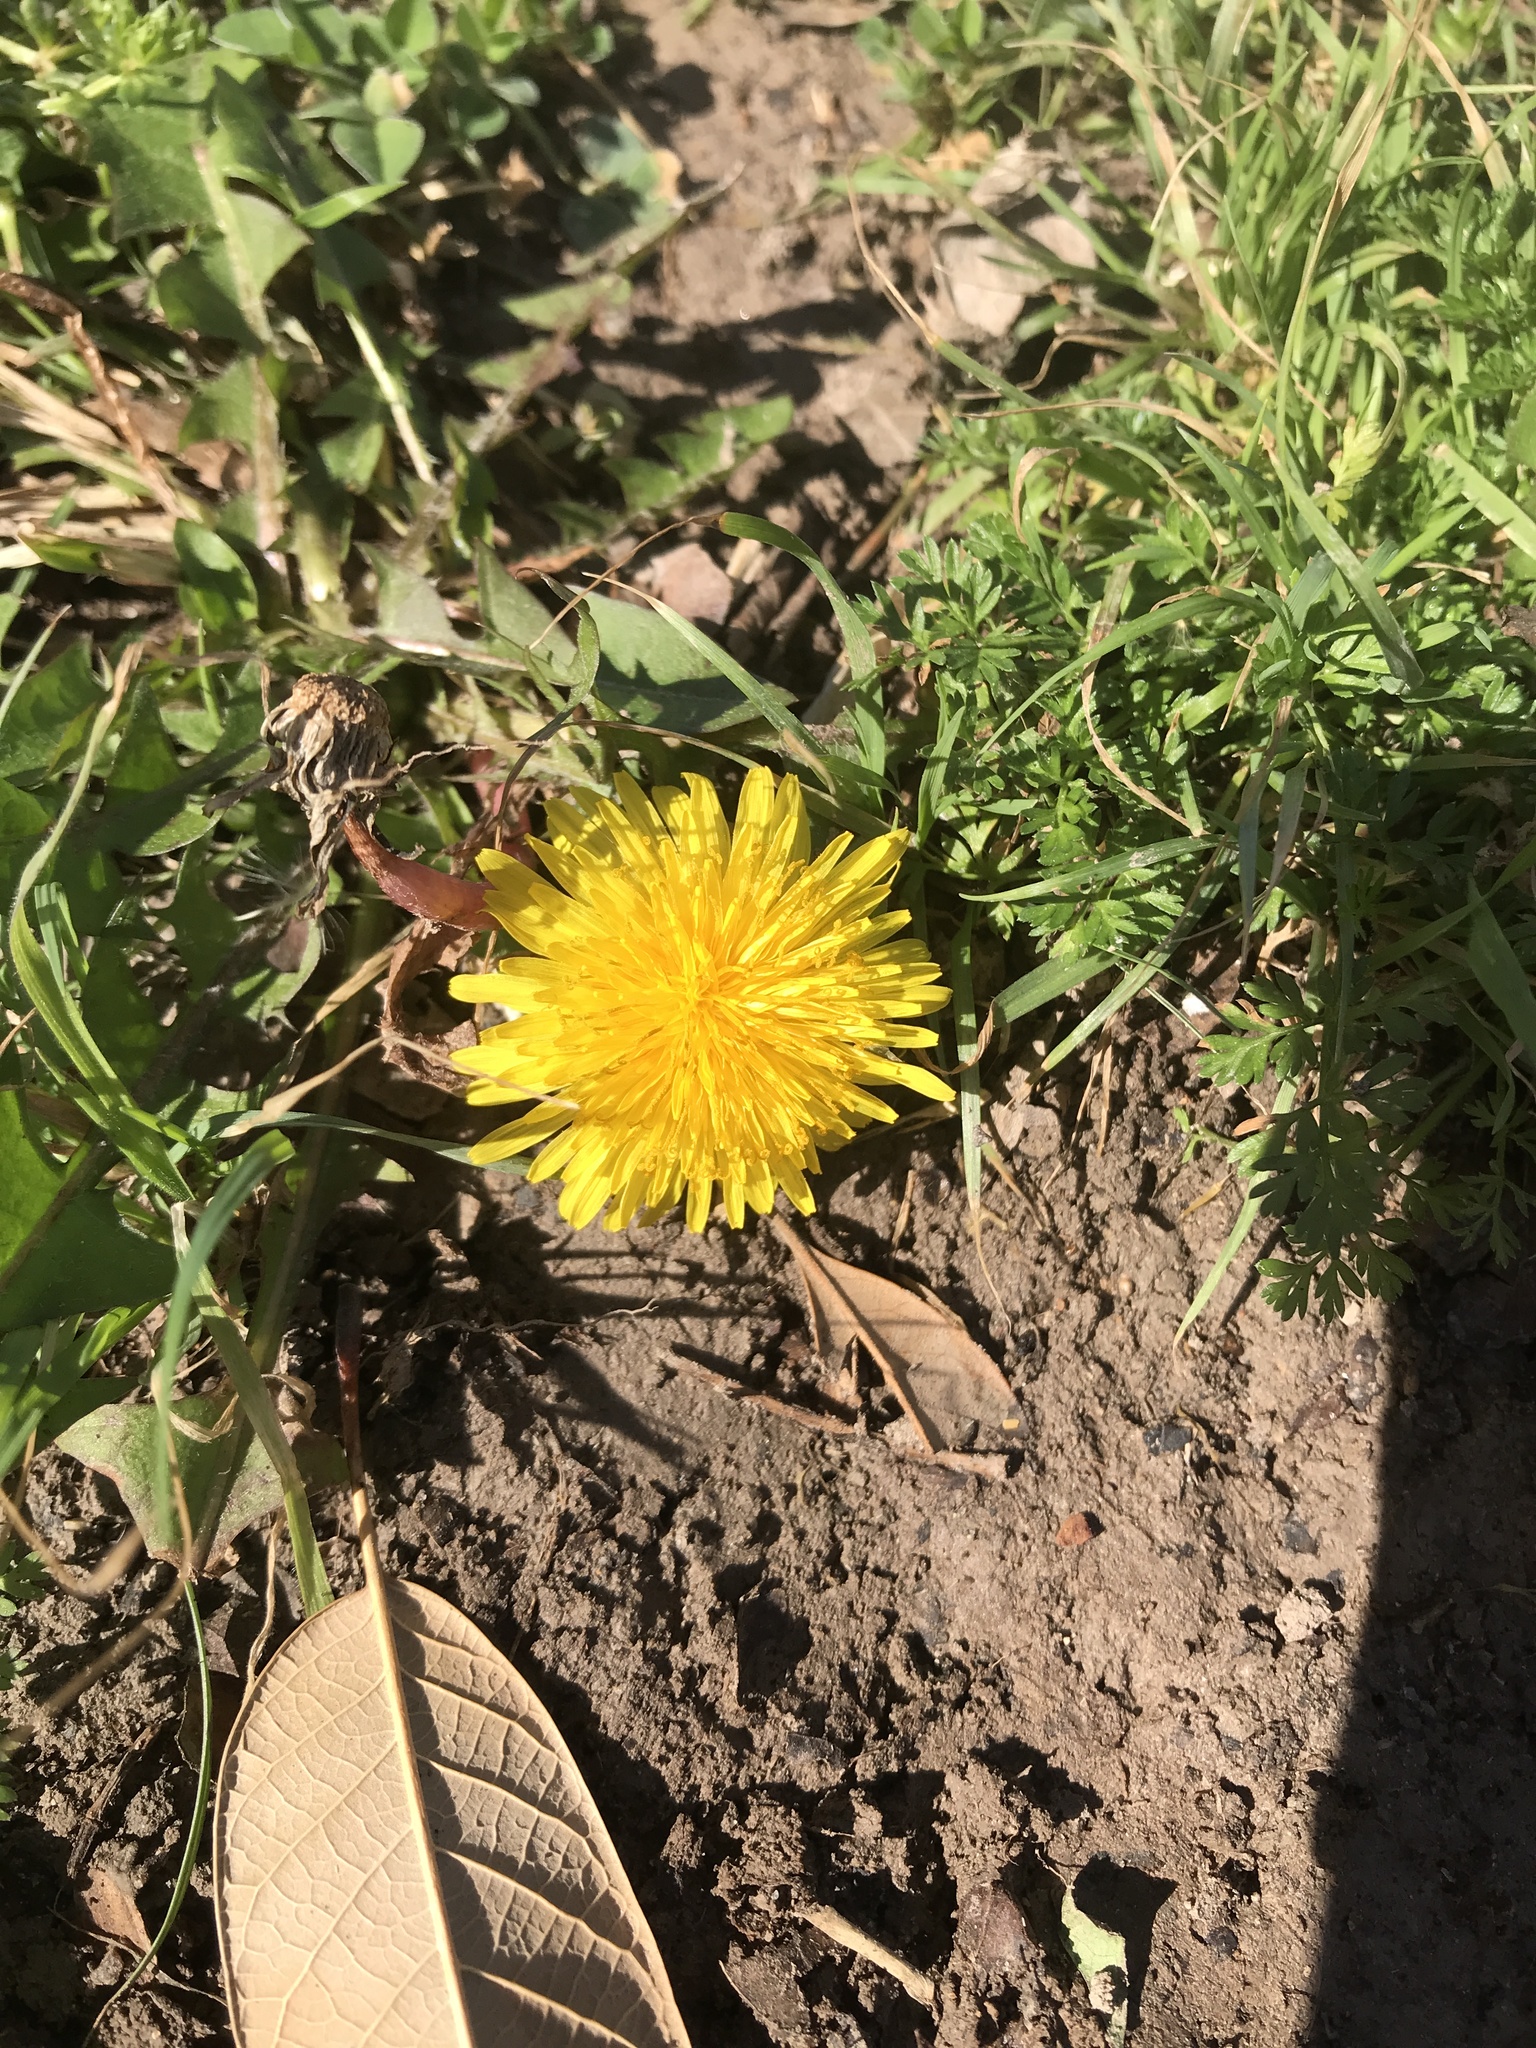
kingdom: Plantae
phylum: Tracheophyta
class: Magnoliopsida
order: Asterales
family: Asteraceae
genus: Taraxacum
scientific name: Taraxacum officinale
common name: Common dandelion
